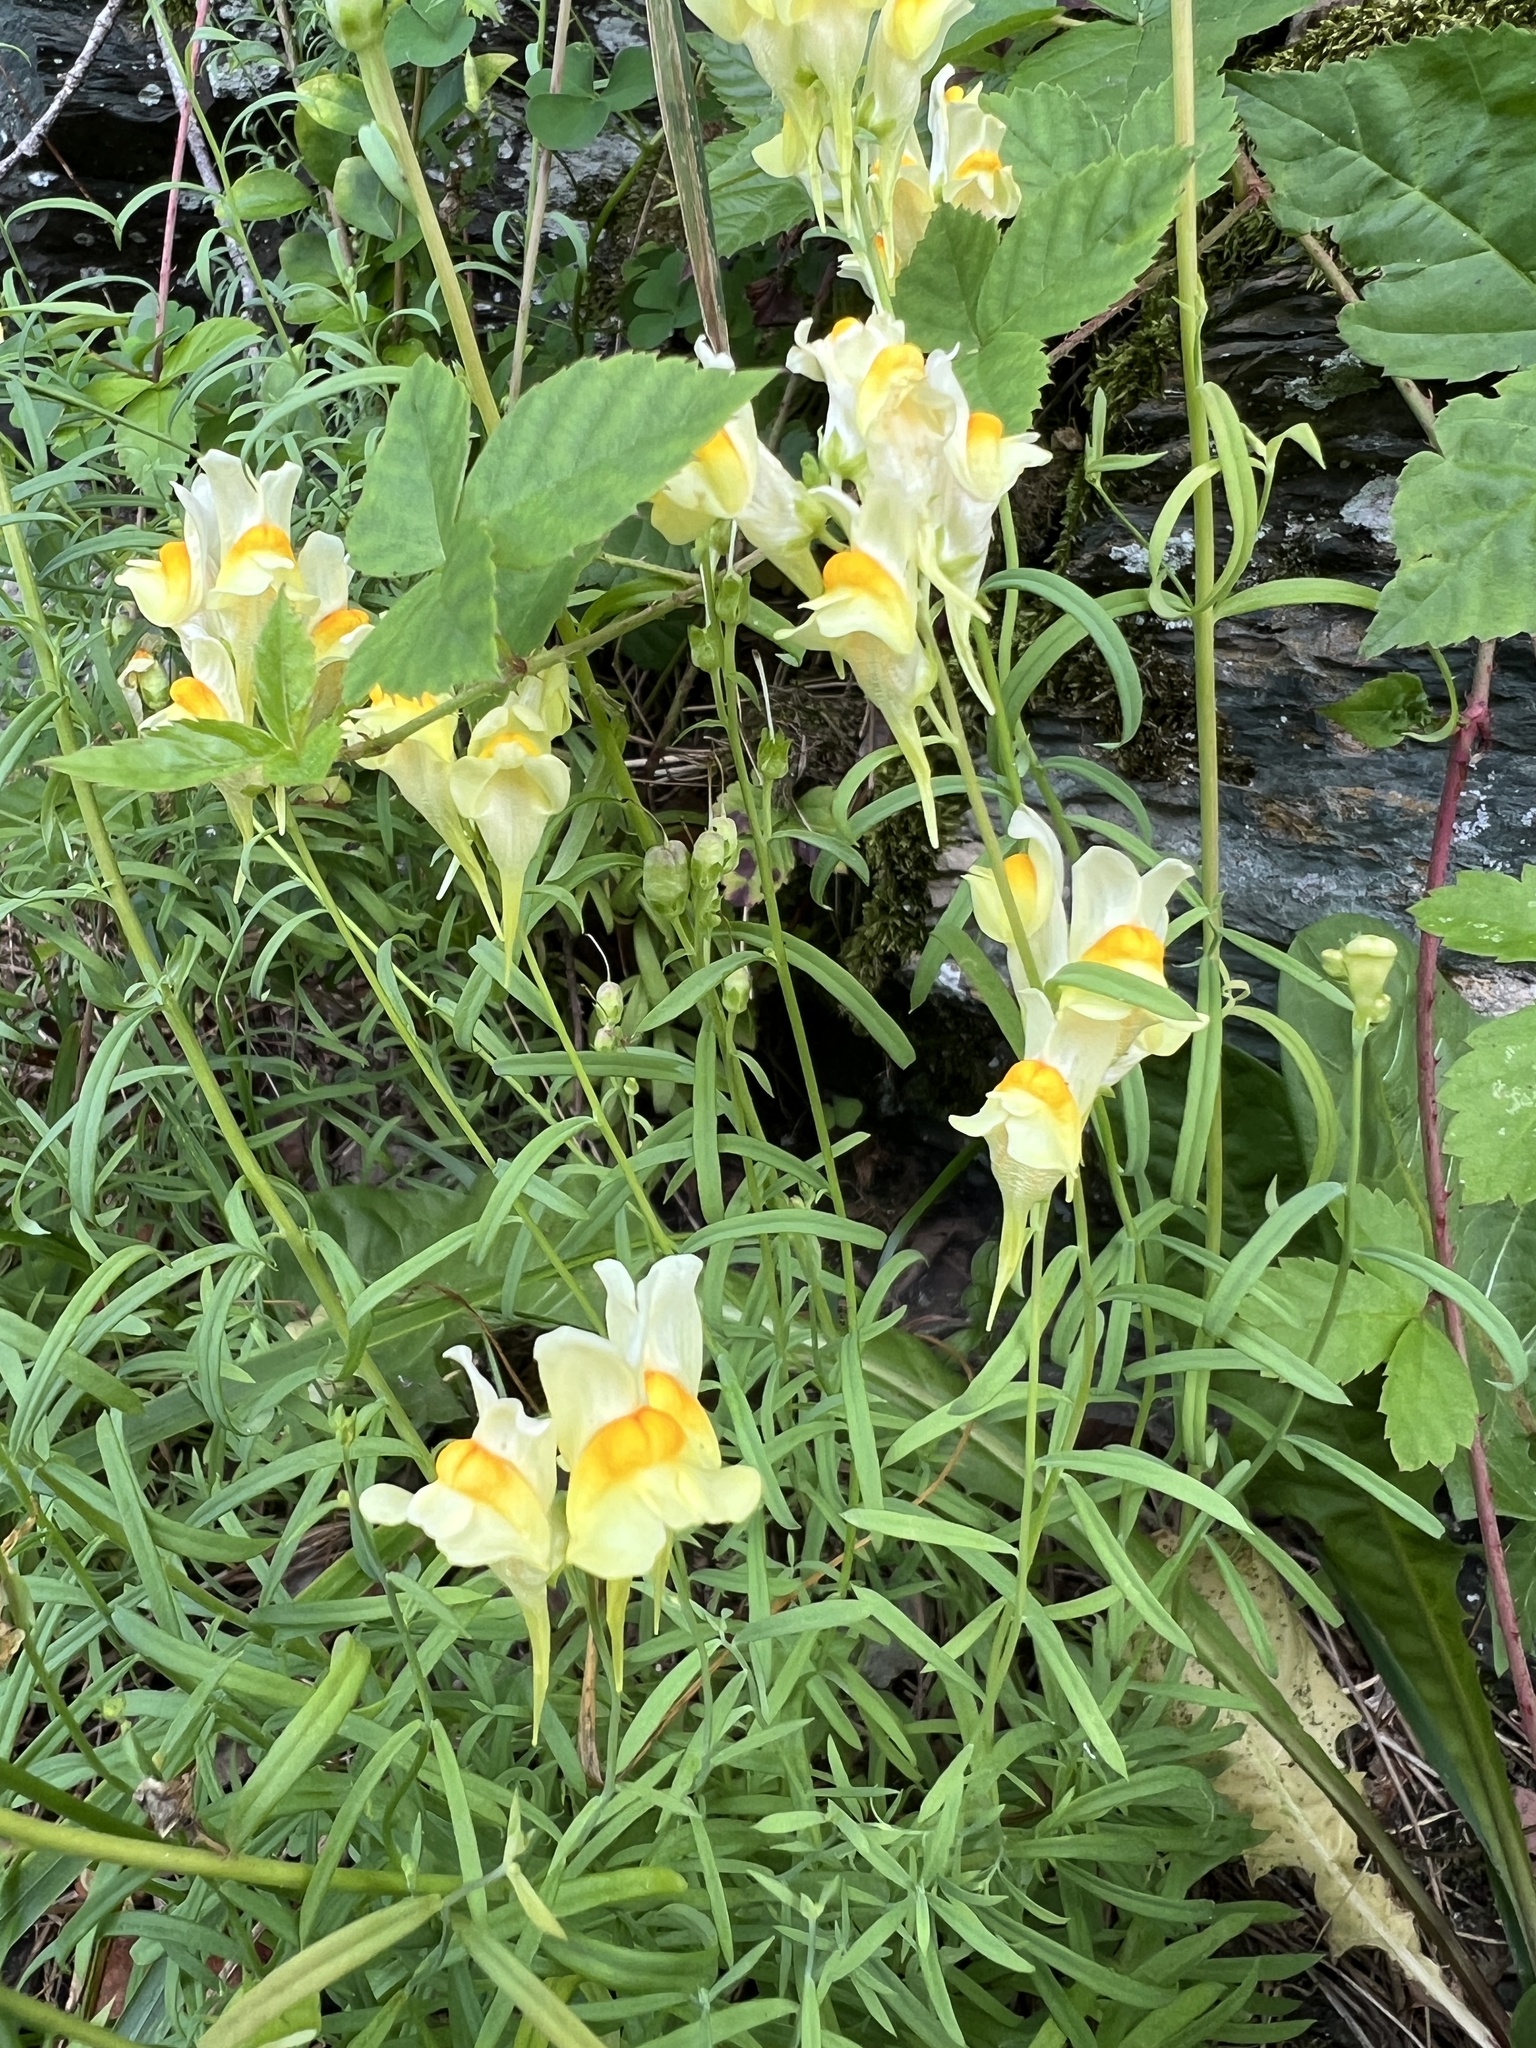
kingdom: Plantae
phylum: Tracheophyta
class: Magnoliopsida
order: Lamiales
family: Plantaginaceae
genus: Linaria
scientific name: Linaria vulgaris
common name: Butter and eggs
